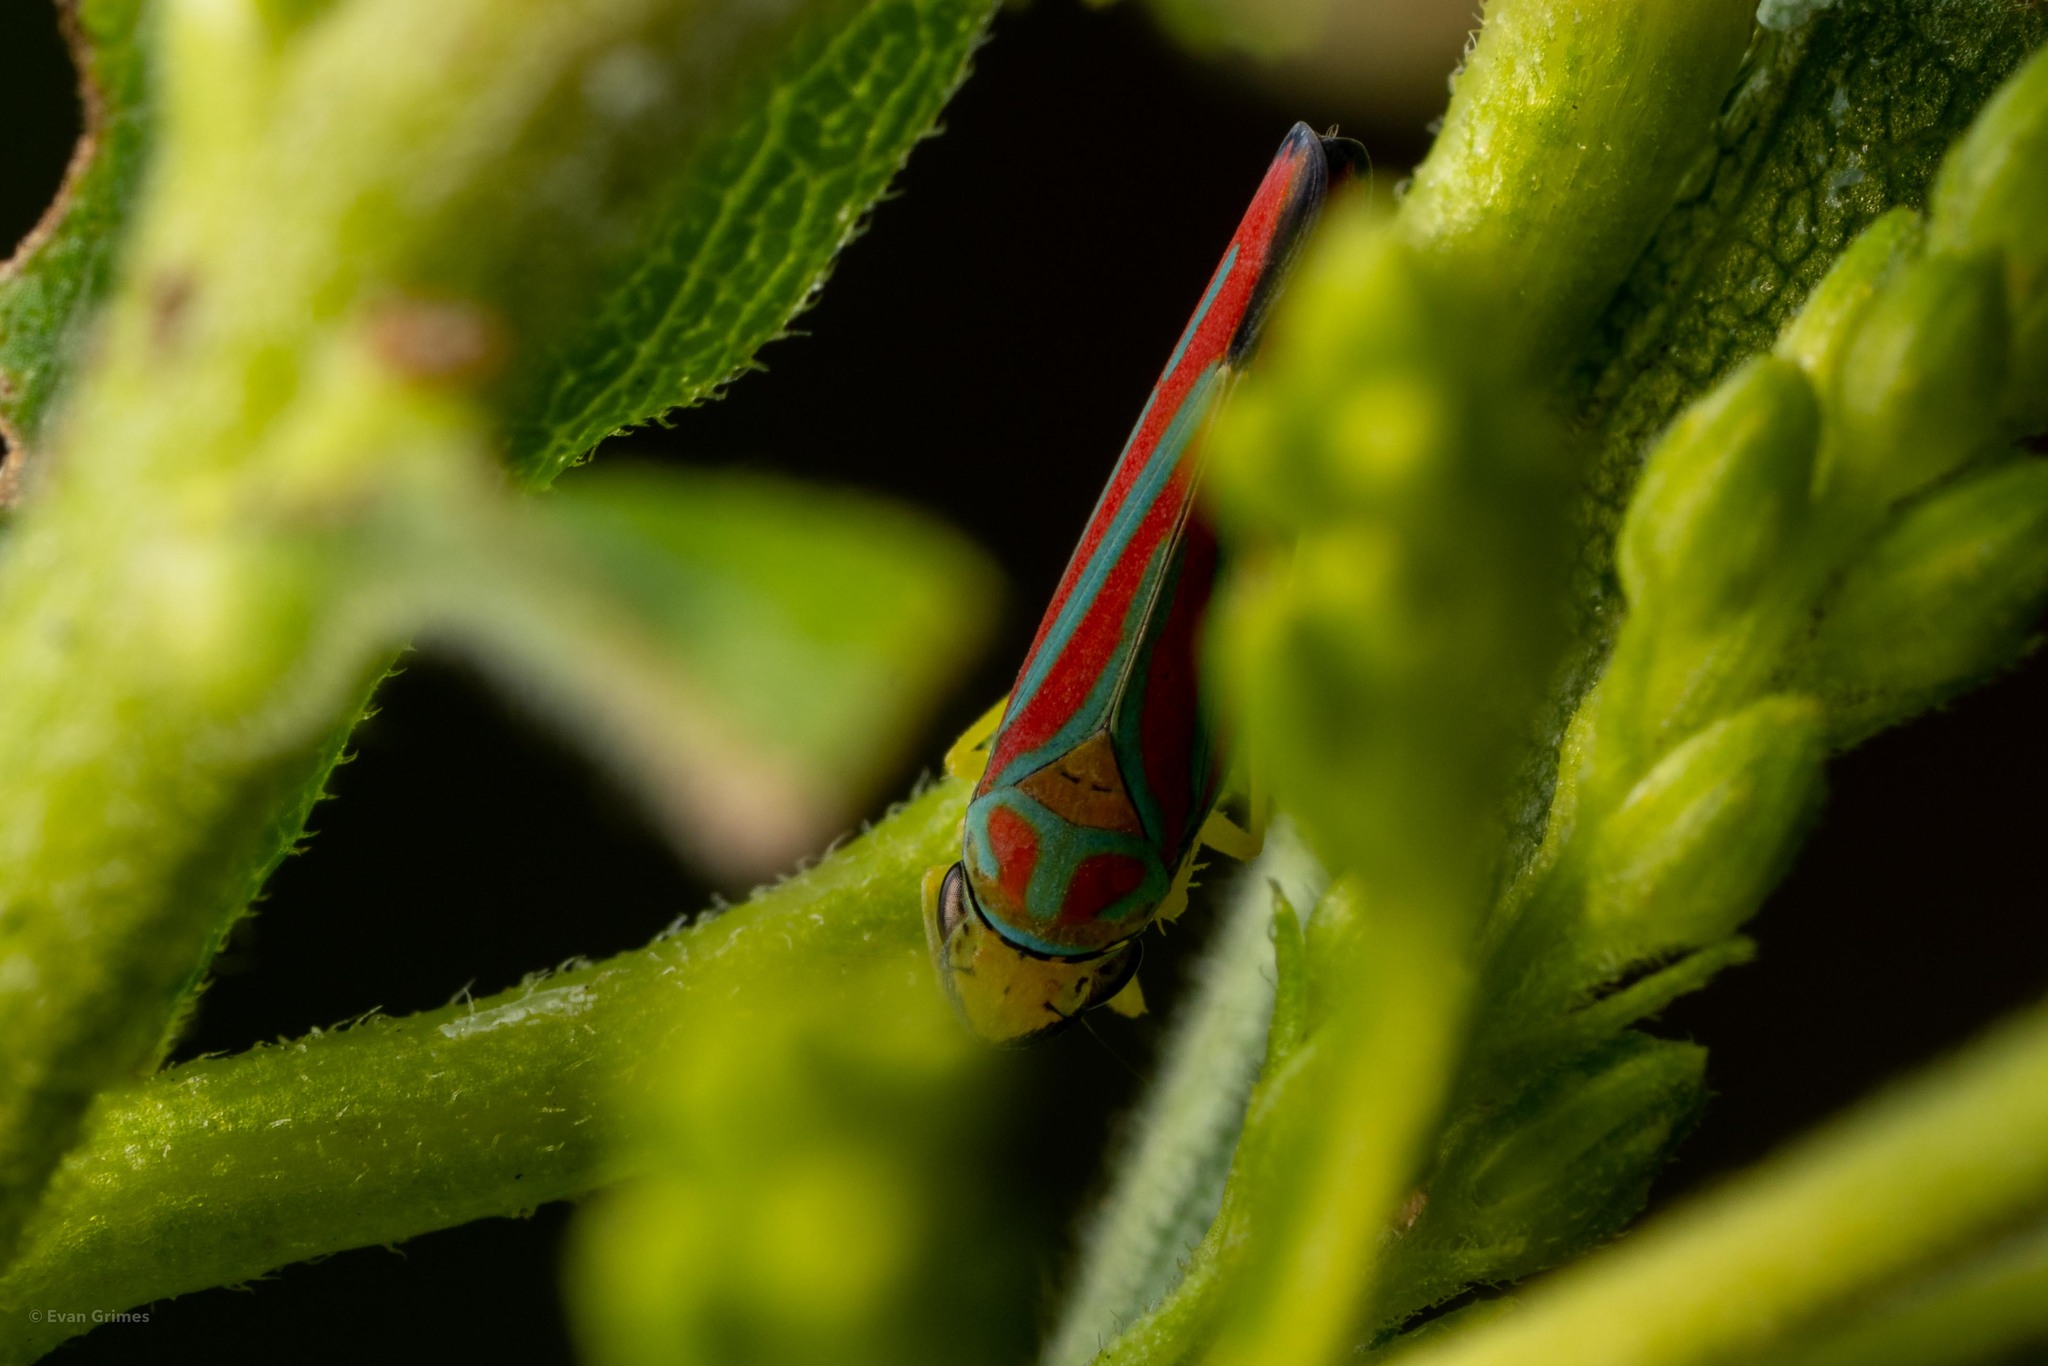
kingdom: Animalia
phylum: Arthropoda
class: Insecta
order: Hemiptera
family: Cicadellidae
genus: Graphocephala
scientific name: Graphocephala coccinea
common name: Candy-striped leafhopper
